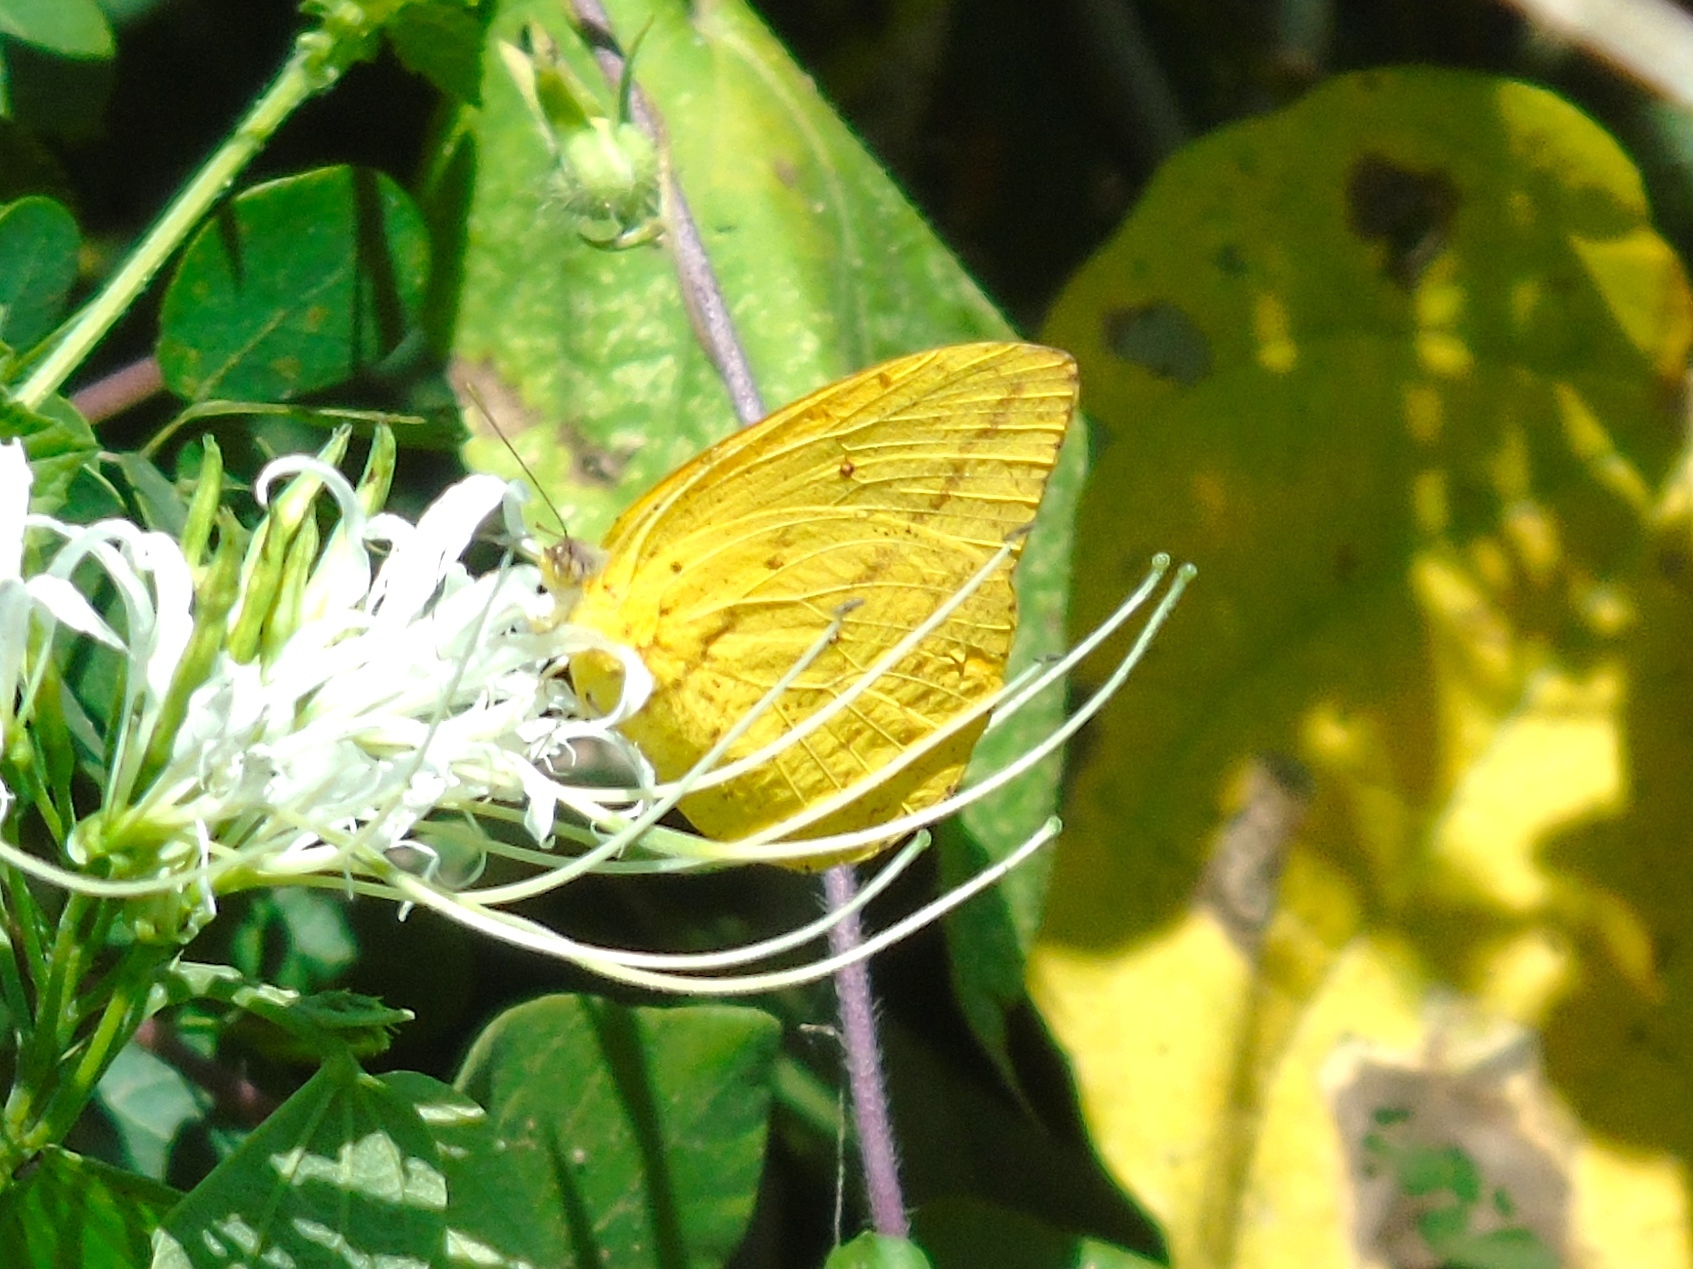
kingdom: Animalia
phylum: Arthropoda
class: Insecta
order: Lepidoptera
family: Pieridae
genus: Phoebis
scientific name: Phoebis agarithe
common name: Large orange sulphur
